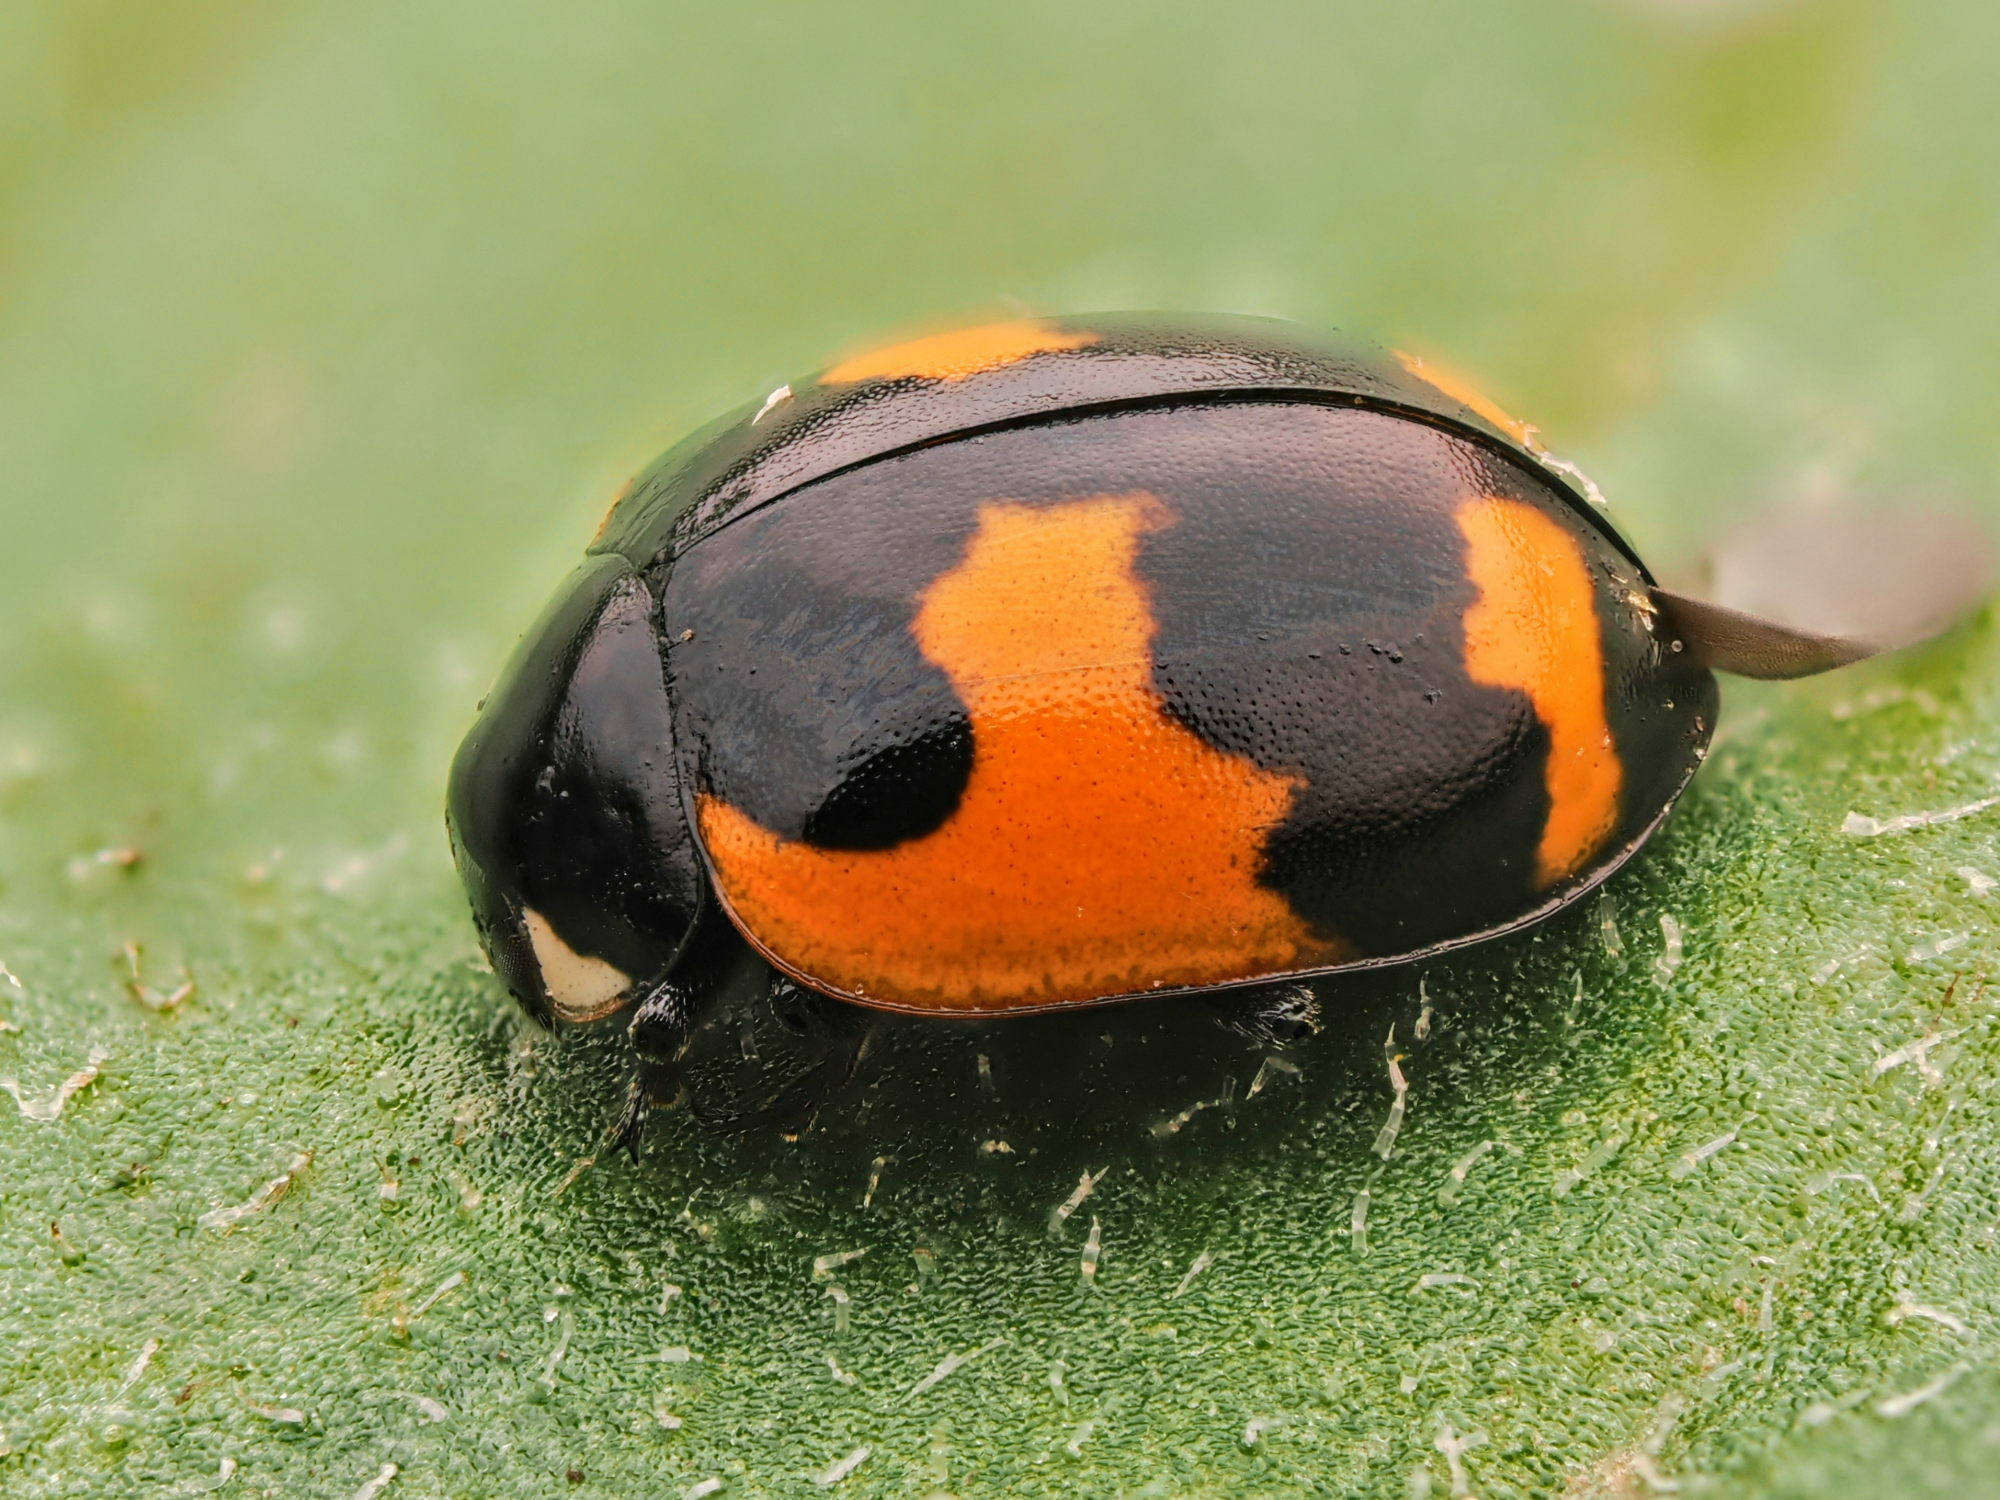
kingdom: Animalia
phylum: Arthropoda
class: Insecta
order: Coleoptera
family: Coccinellidae
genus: Ceratomegilla
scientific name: Ceratomegilla alpina
